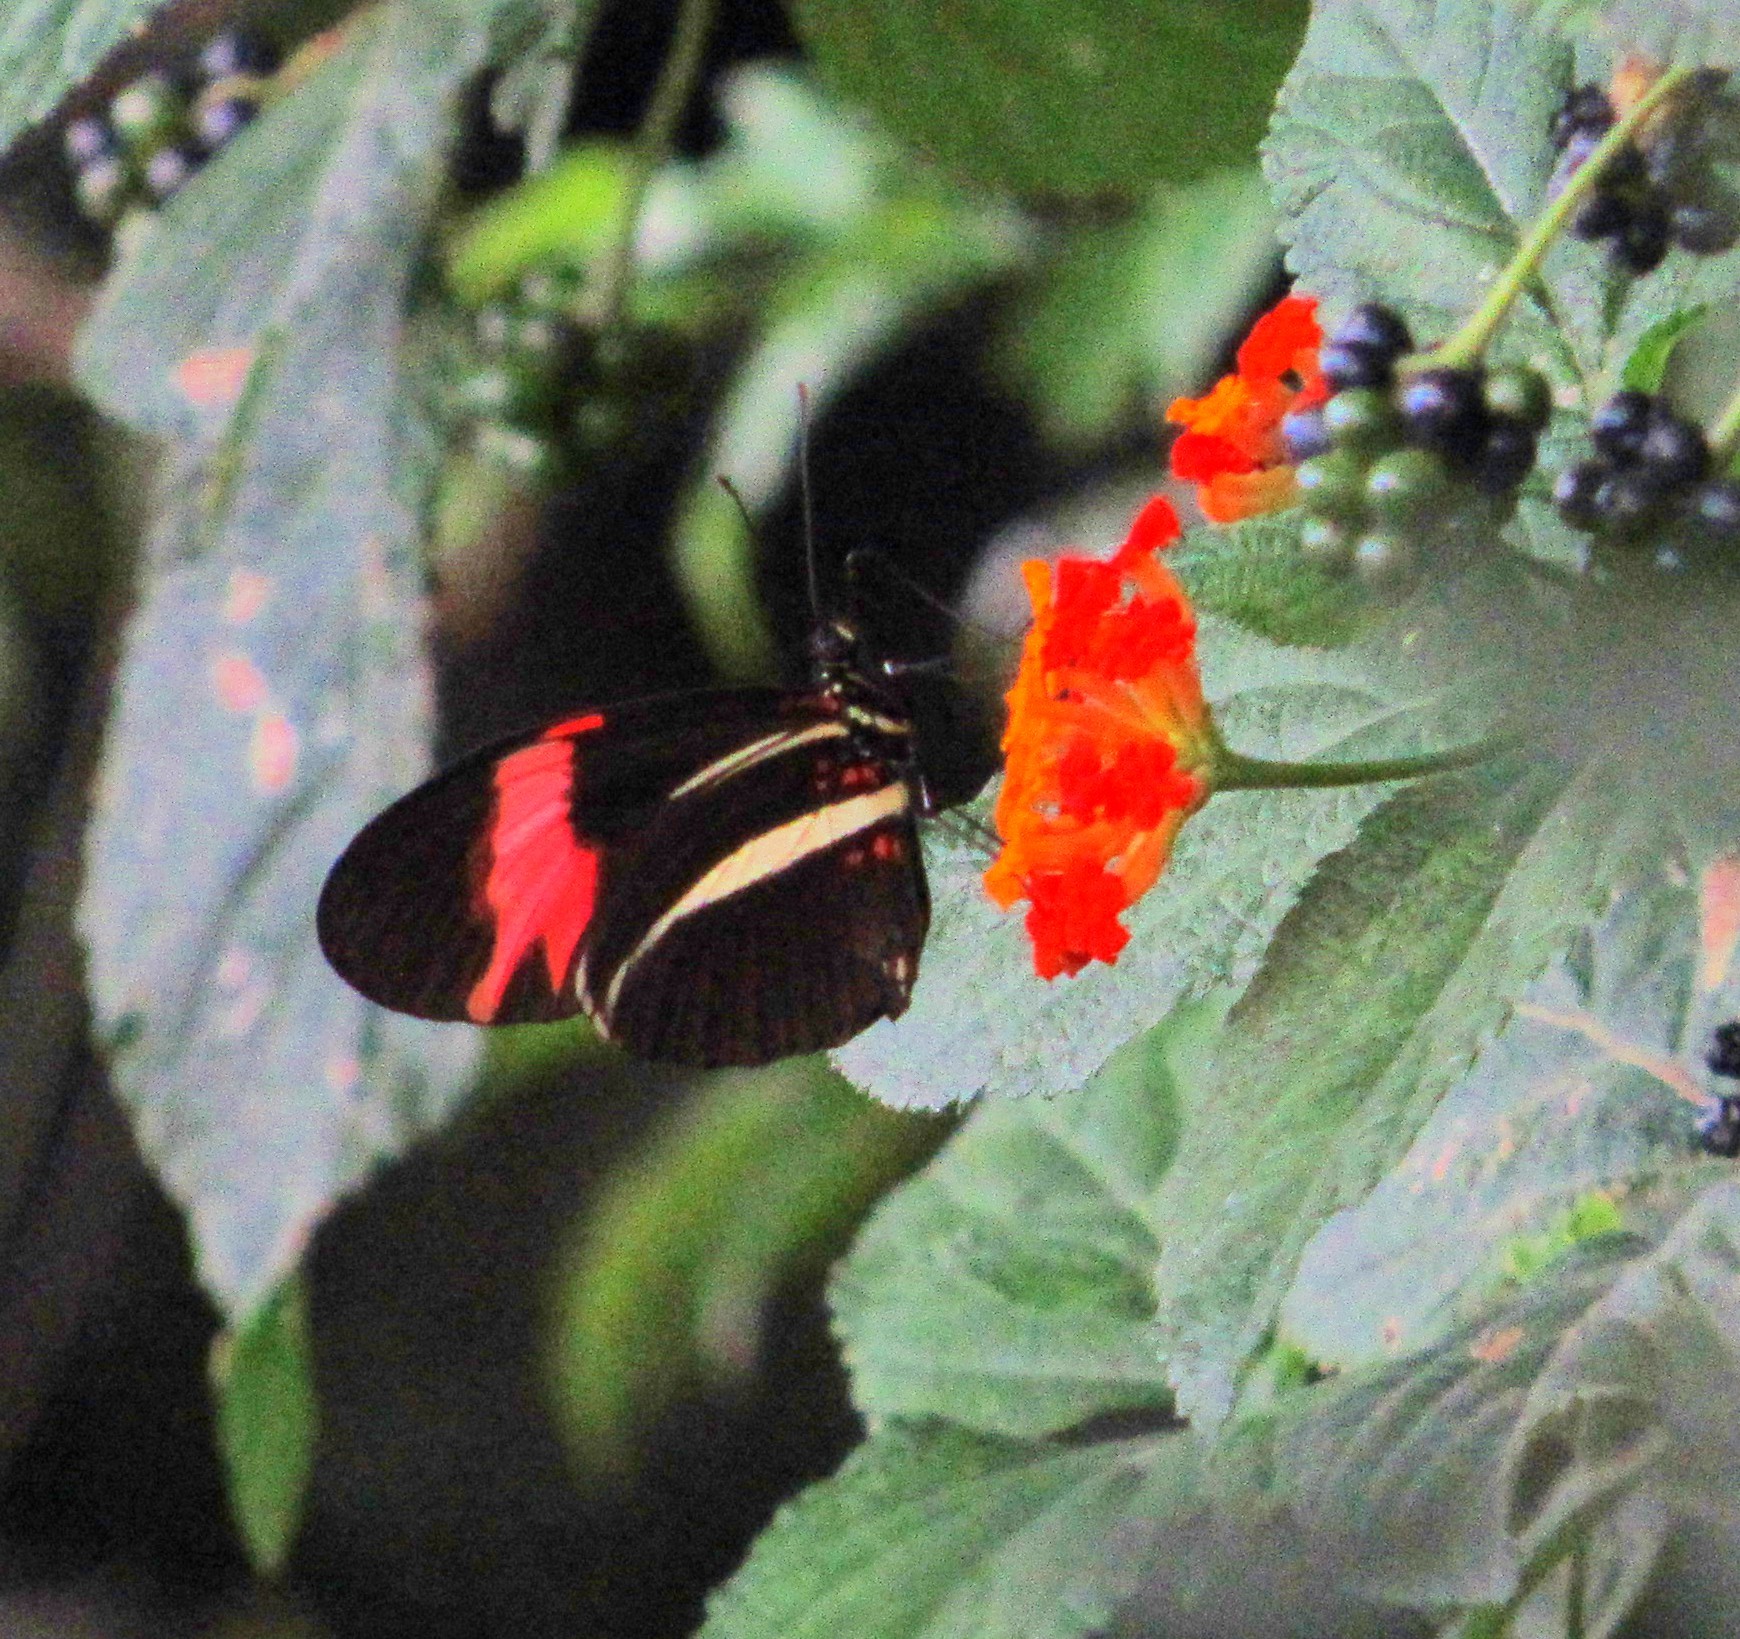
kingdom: Animalia
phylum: Arthropoda
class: Insecta
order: Lepidoptera
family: Nymphalidae
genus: Heliconius
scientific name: Heliconius erato
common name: Common patch longwing
